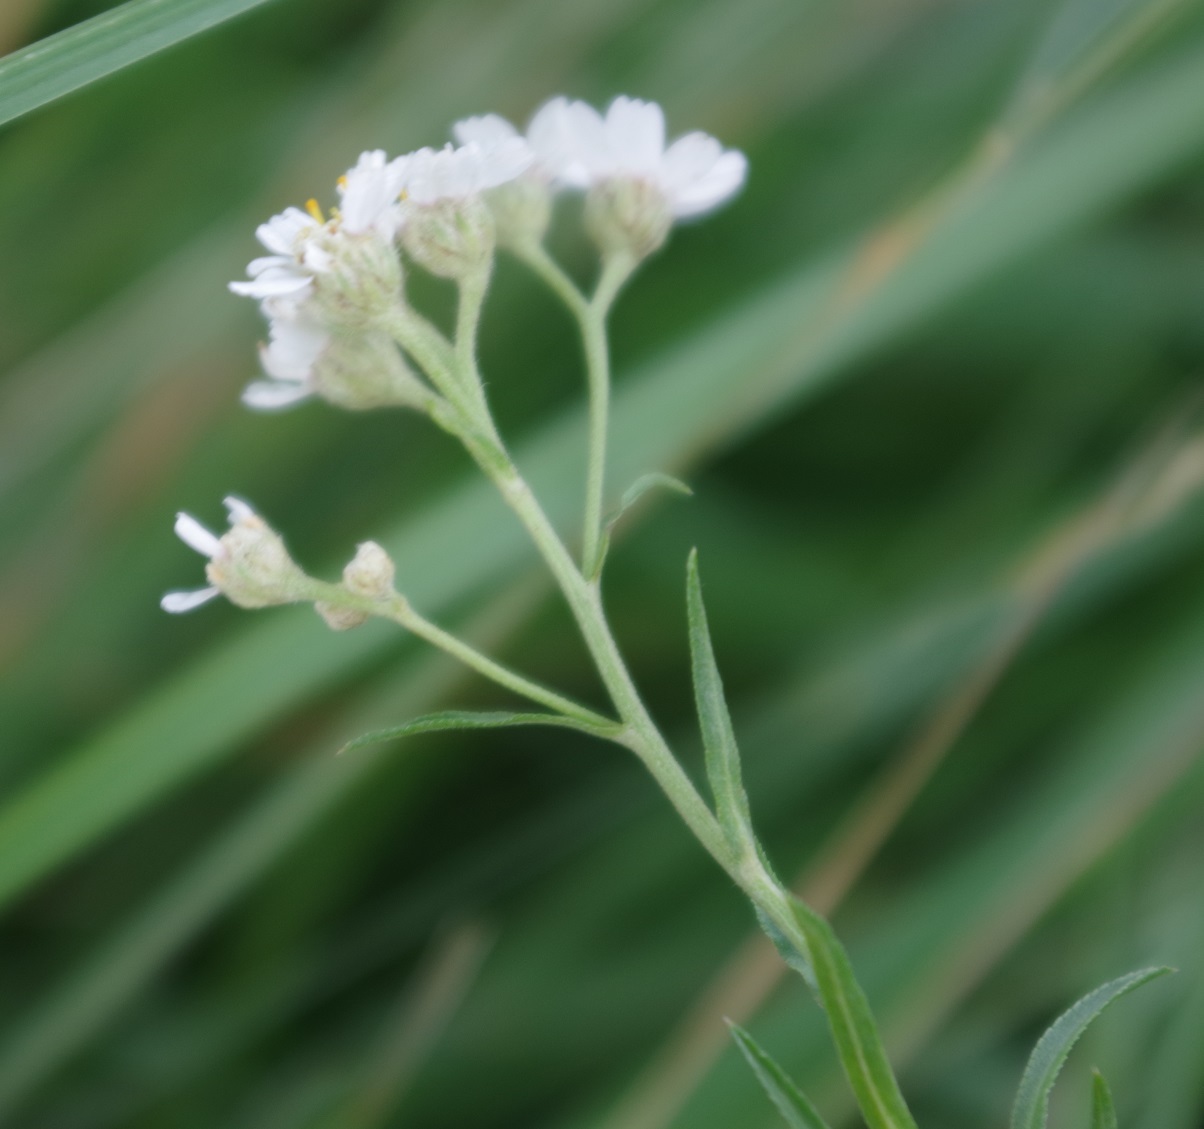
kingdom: Plantae
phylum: Tracheophyta
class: Magnoliopsida
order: Asterales
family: Asteraceae
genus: Achillea
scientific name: Achillea ptarmica
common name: Sneezeweed
